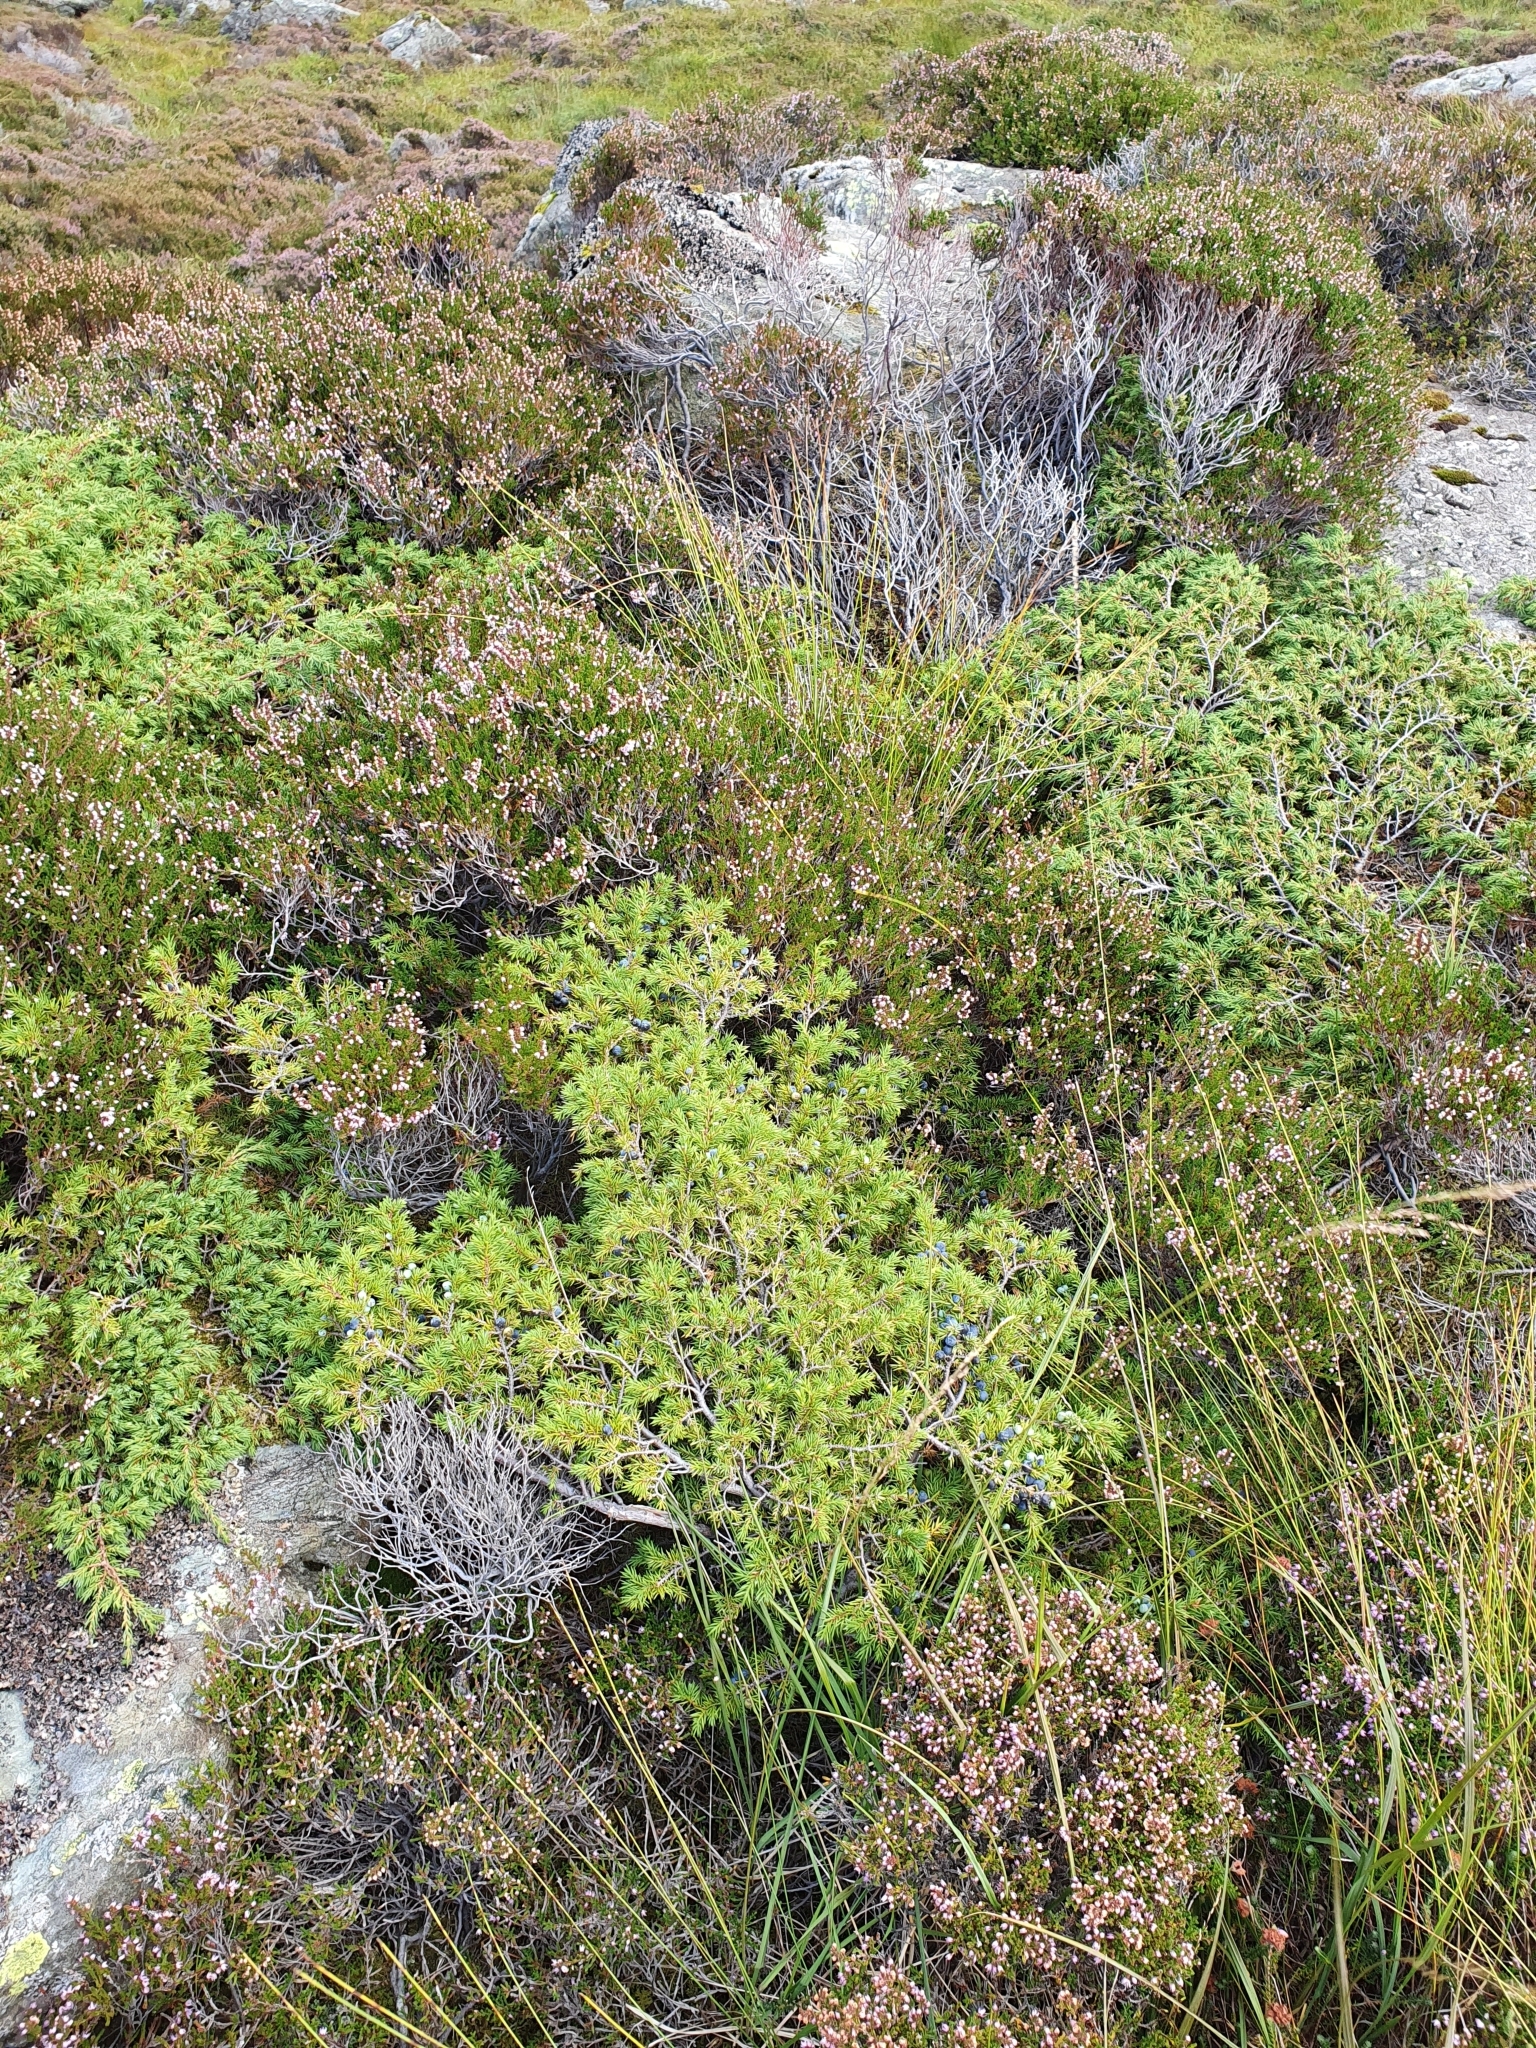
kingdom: Plantae
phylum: Tracheophyta
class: Pinopsida
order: Pinales
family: Cupressaceae
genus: Juniperus
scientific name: Juniperus communis
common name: Common juniper
